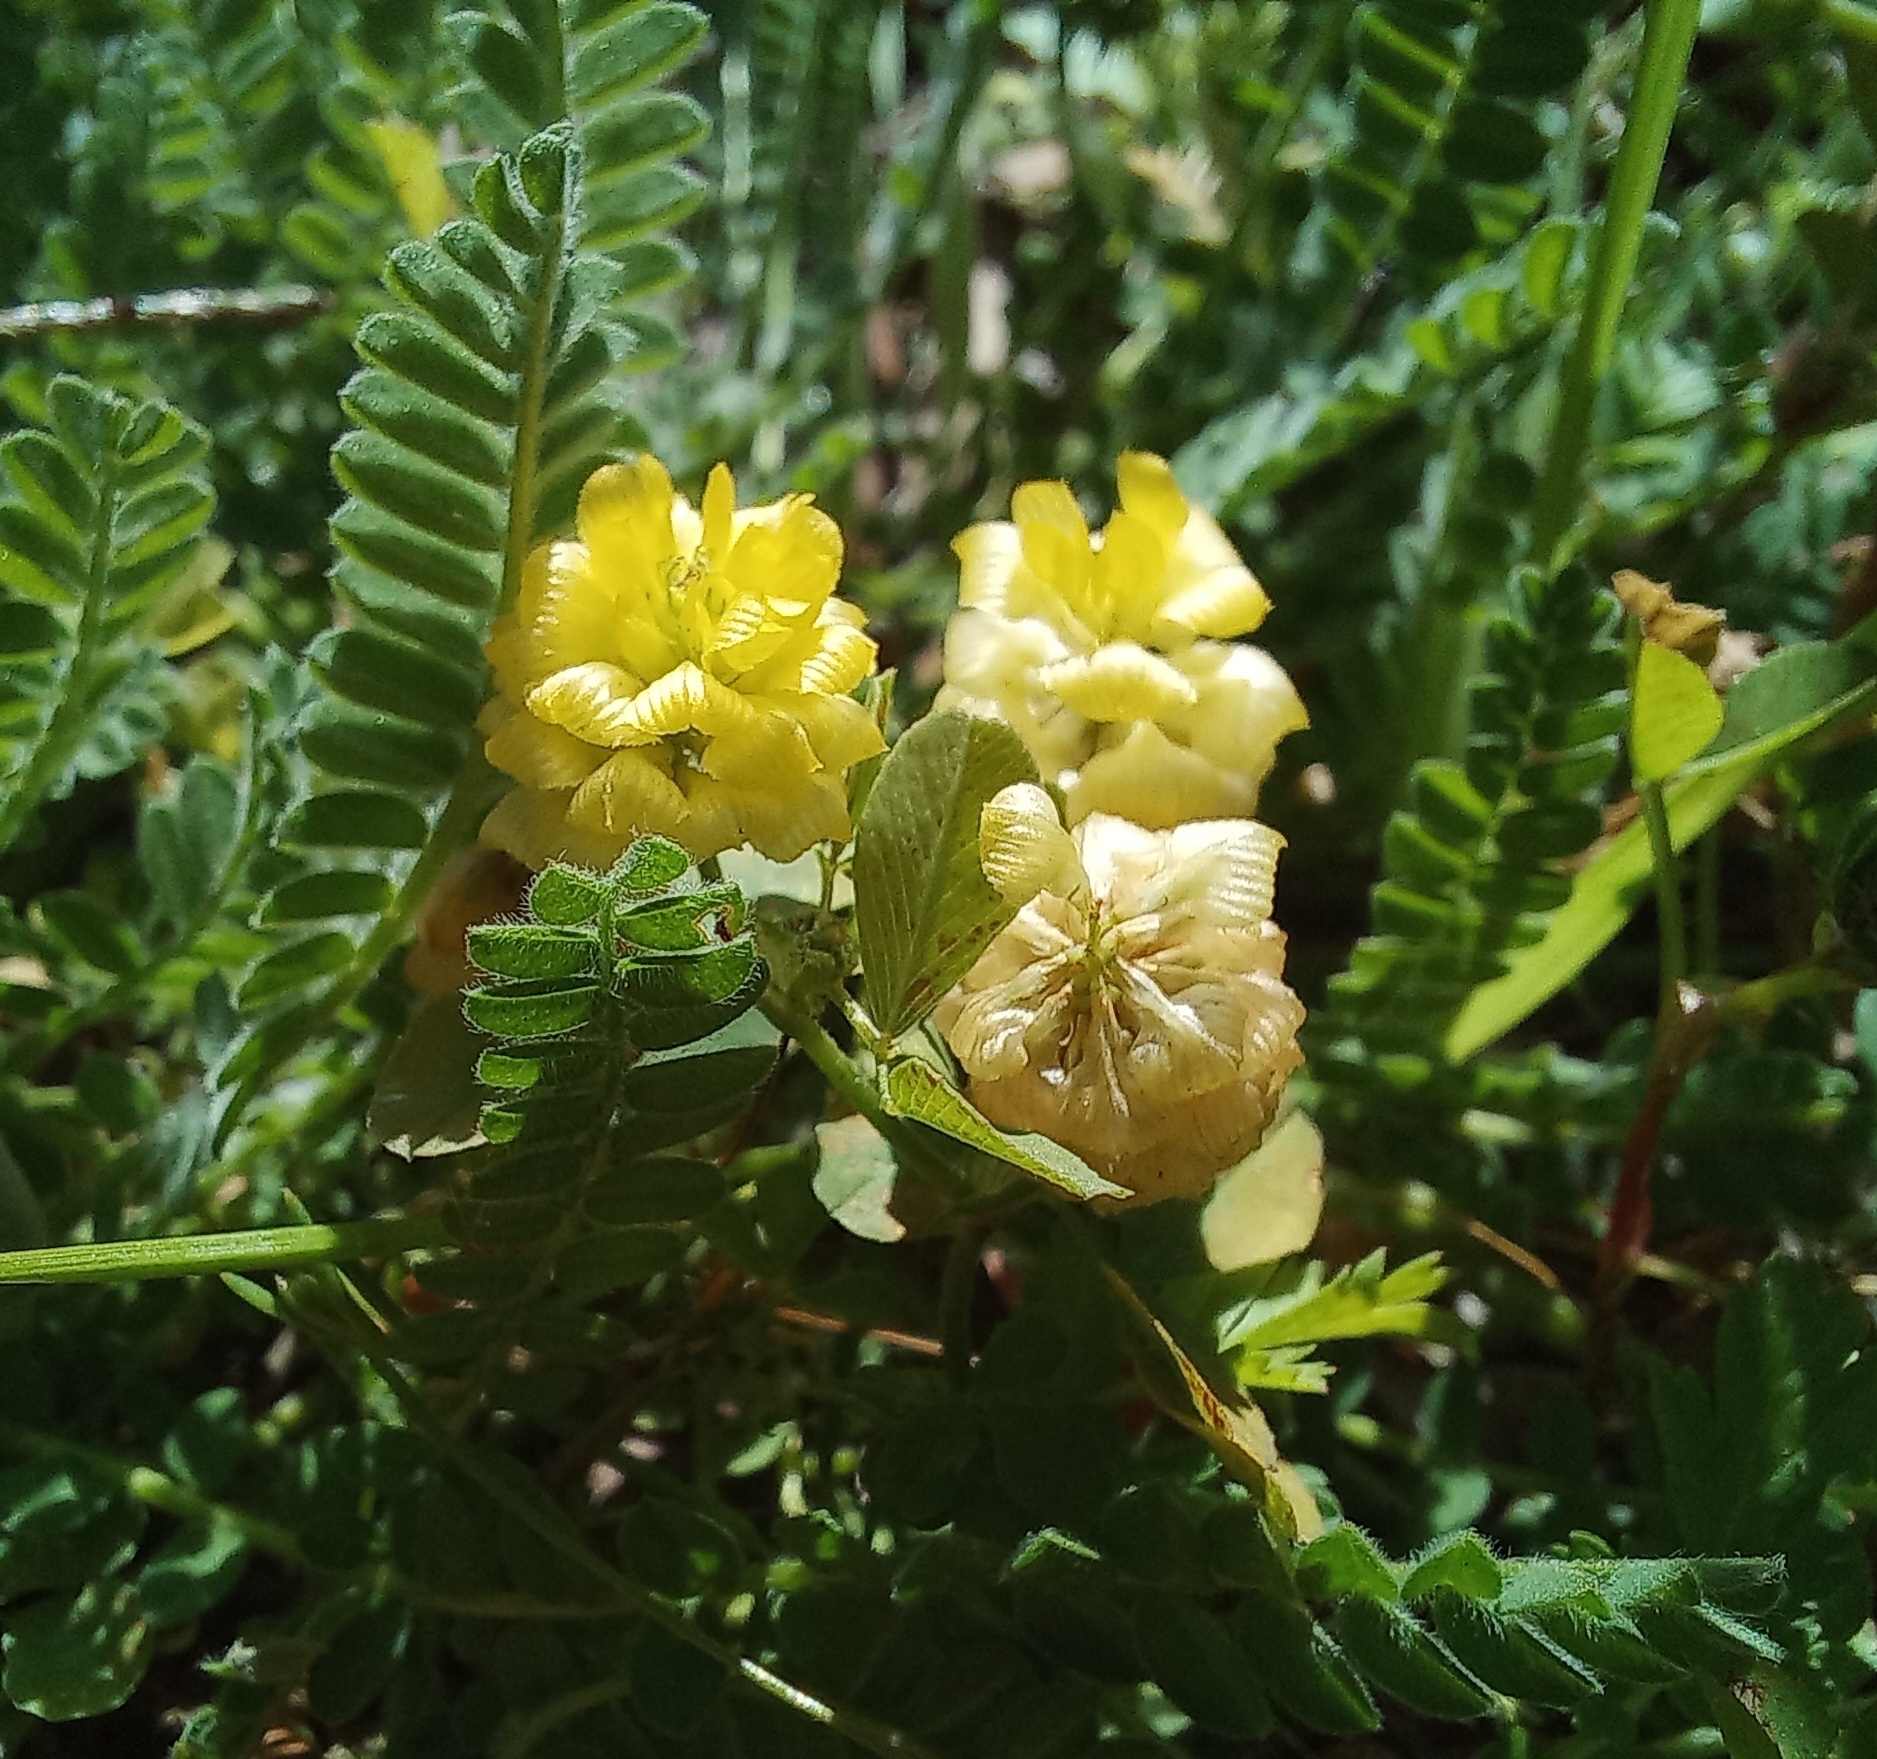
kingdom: Plantae
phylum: Tracheophyta
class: Magnoliopsida
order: Fabales
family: Fabaceae
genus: Trifolium
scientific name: Trifolium campestre
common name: Field clover
